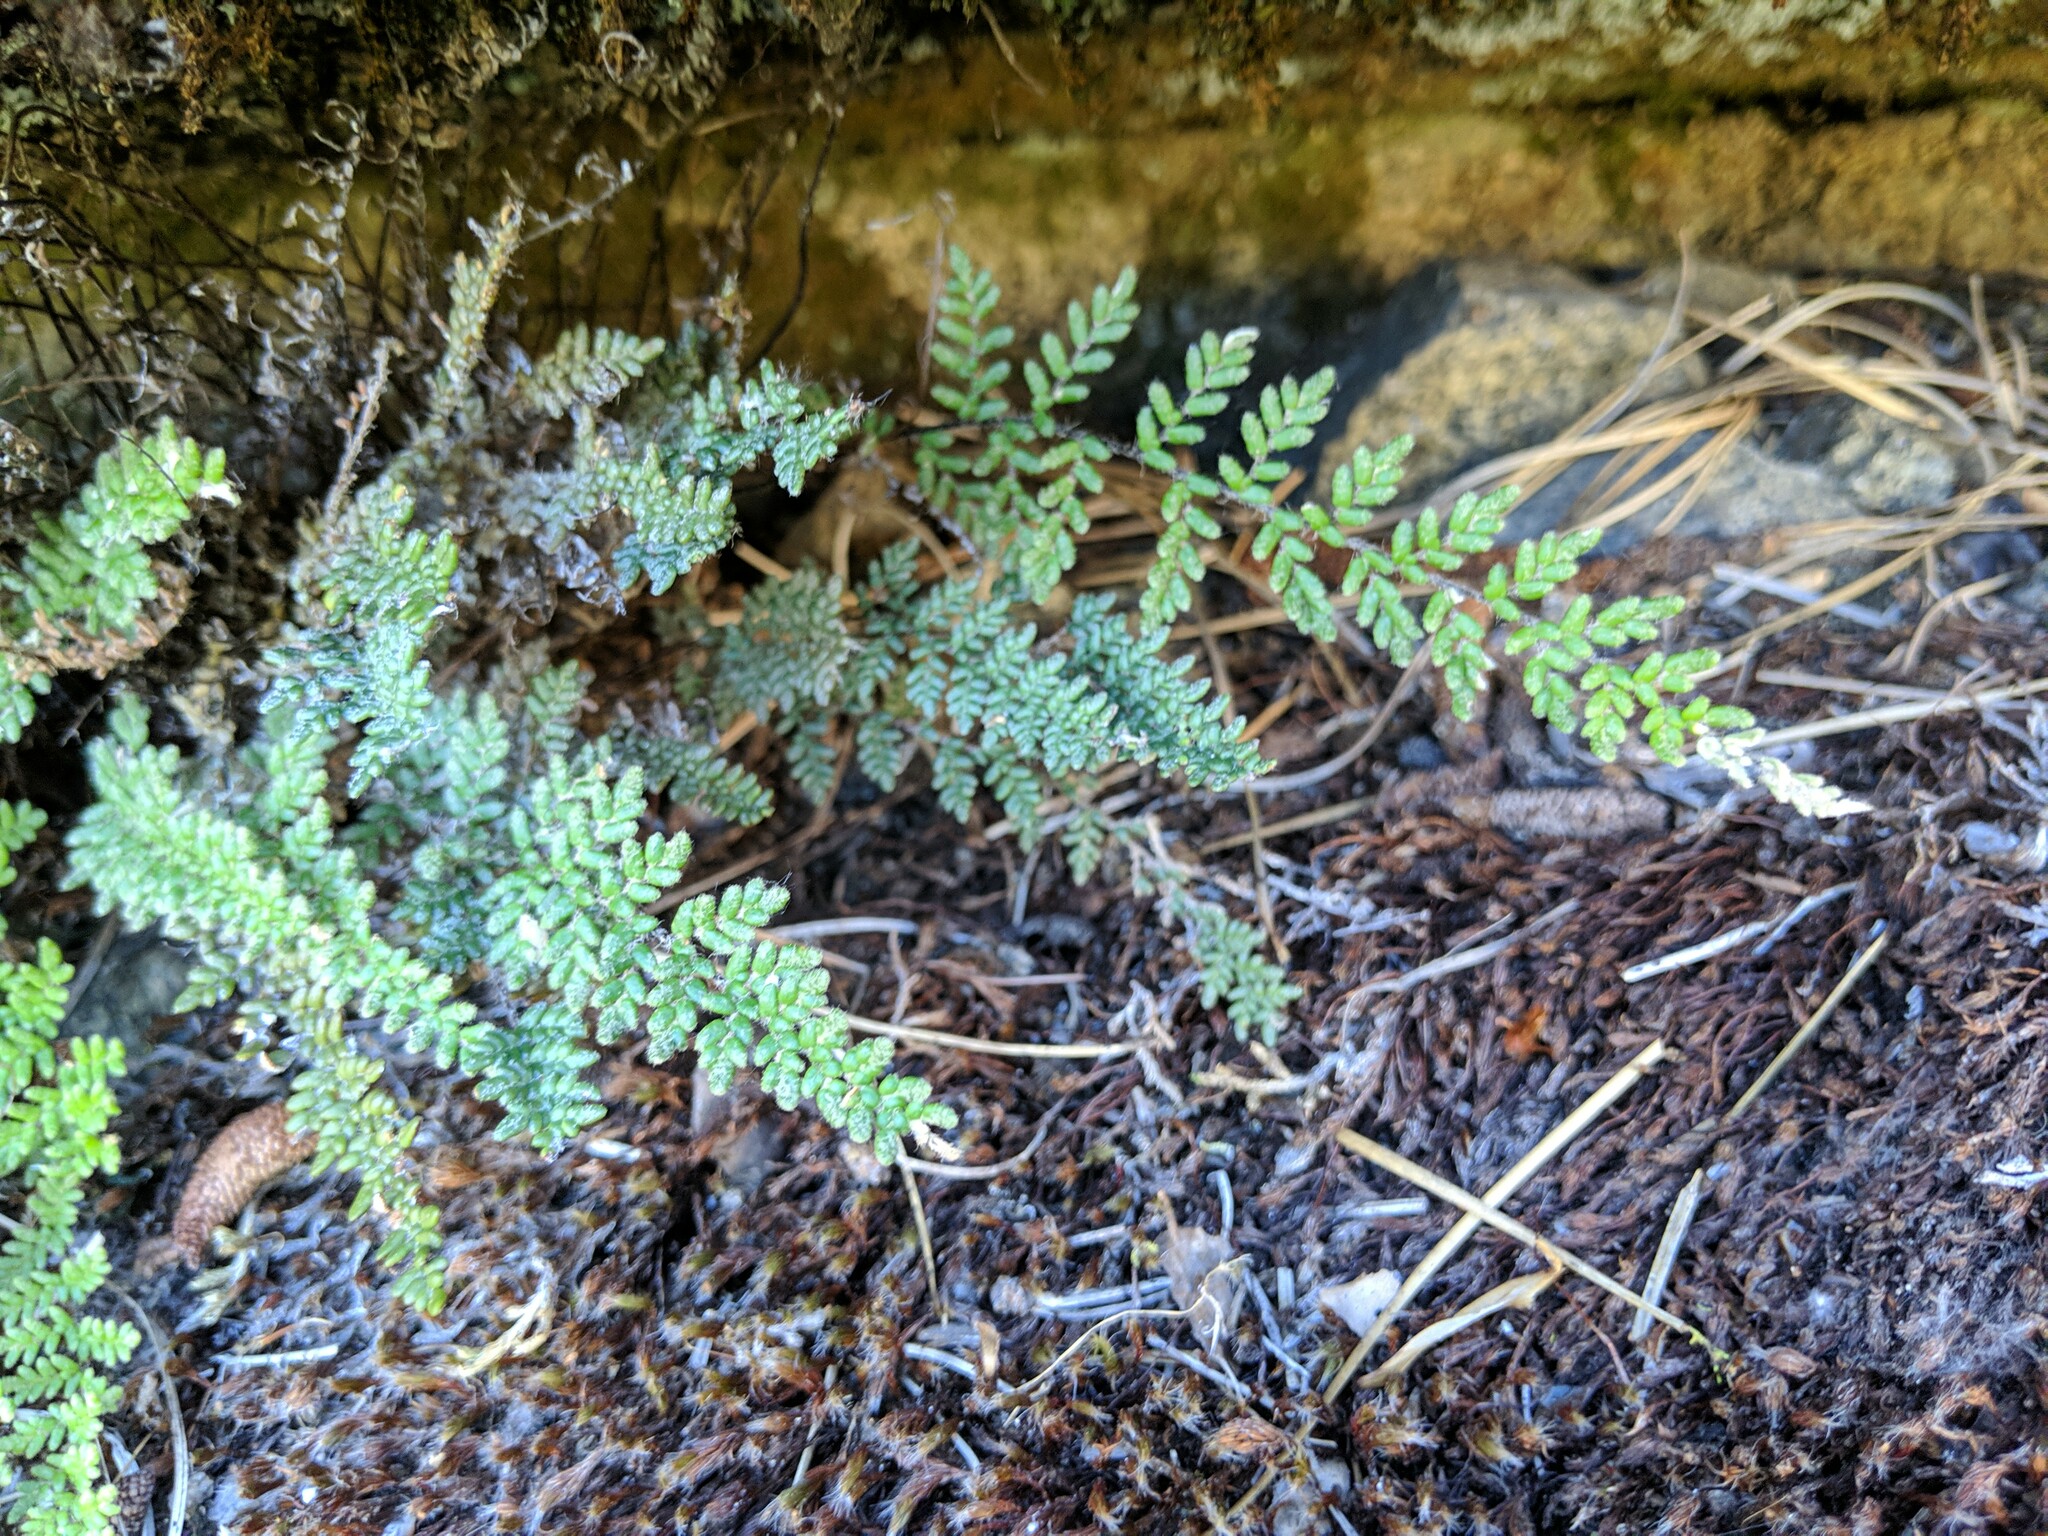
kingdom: Plantae
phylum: Tracheophyta
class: Polypodiopsida
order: Polypodiales
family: Pteridaceae
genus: Myriopteris
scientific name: Myriopteris gracillima
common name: Lace fern
